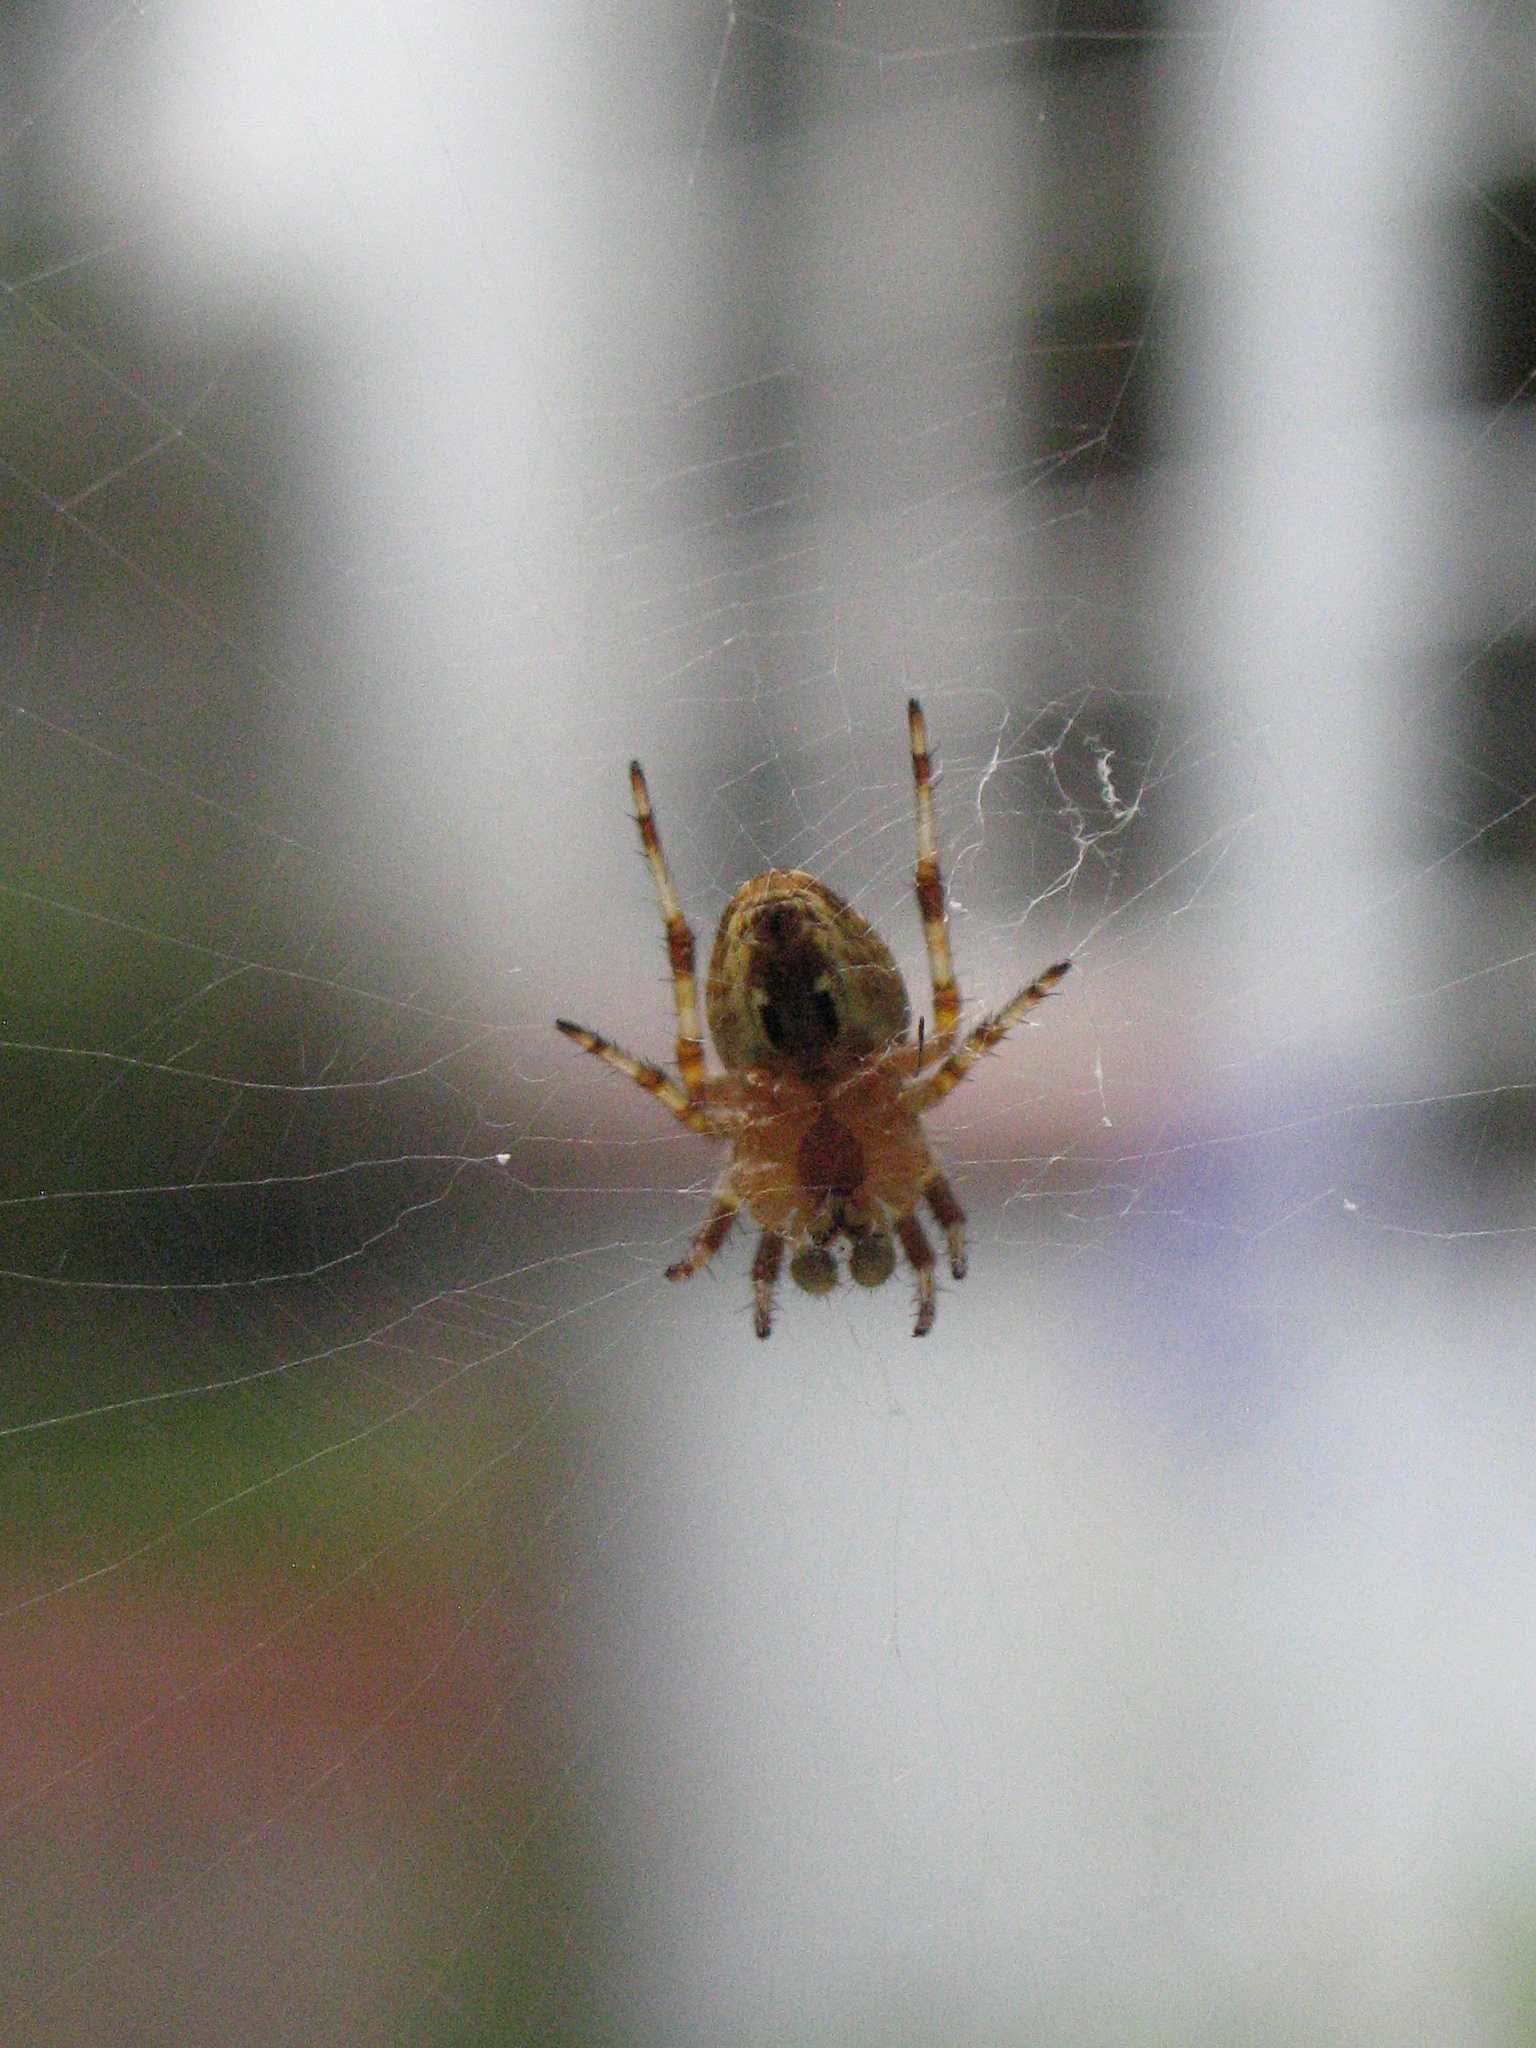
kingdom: Animalia
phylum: Arthropoda
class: Arachnida
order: Araneae
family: Araneidae
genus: Araneus
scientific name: Araneus diadematus
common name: Cross orbweaver
